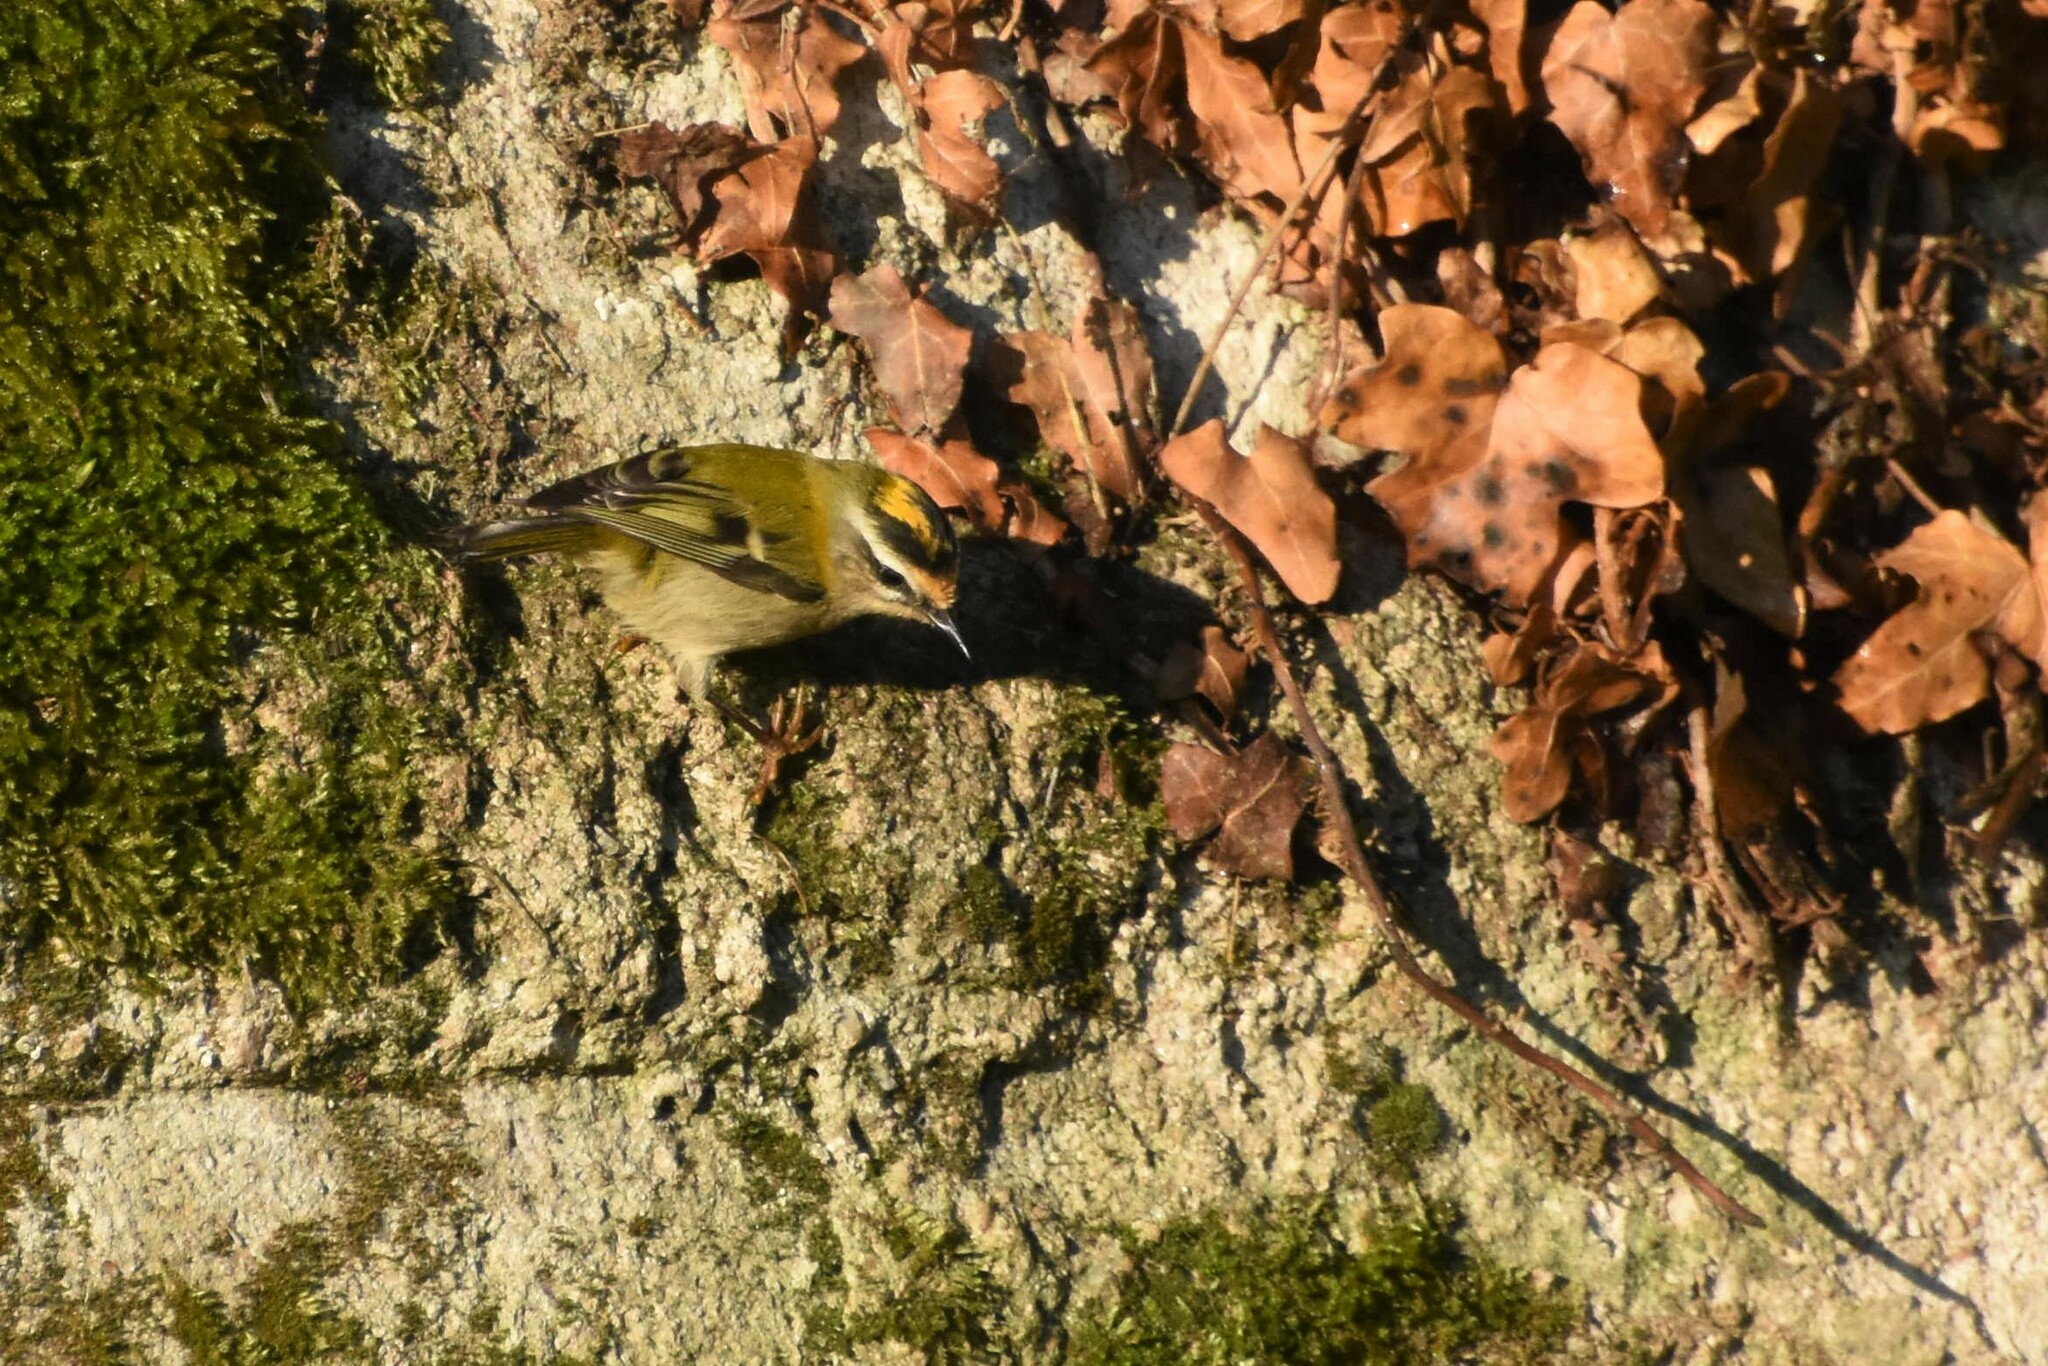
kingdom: Animalia
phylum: Chordata
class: Aves
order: Passeriformes
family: Regulidae
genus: Regulus
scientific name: Regulus ignicapilla
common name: Firecrest
